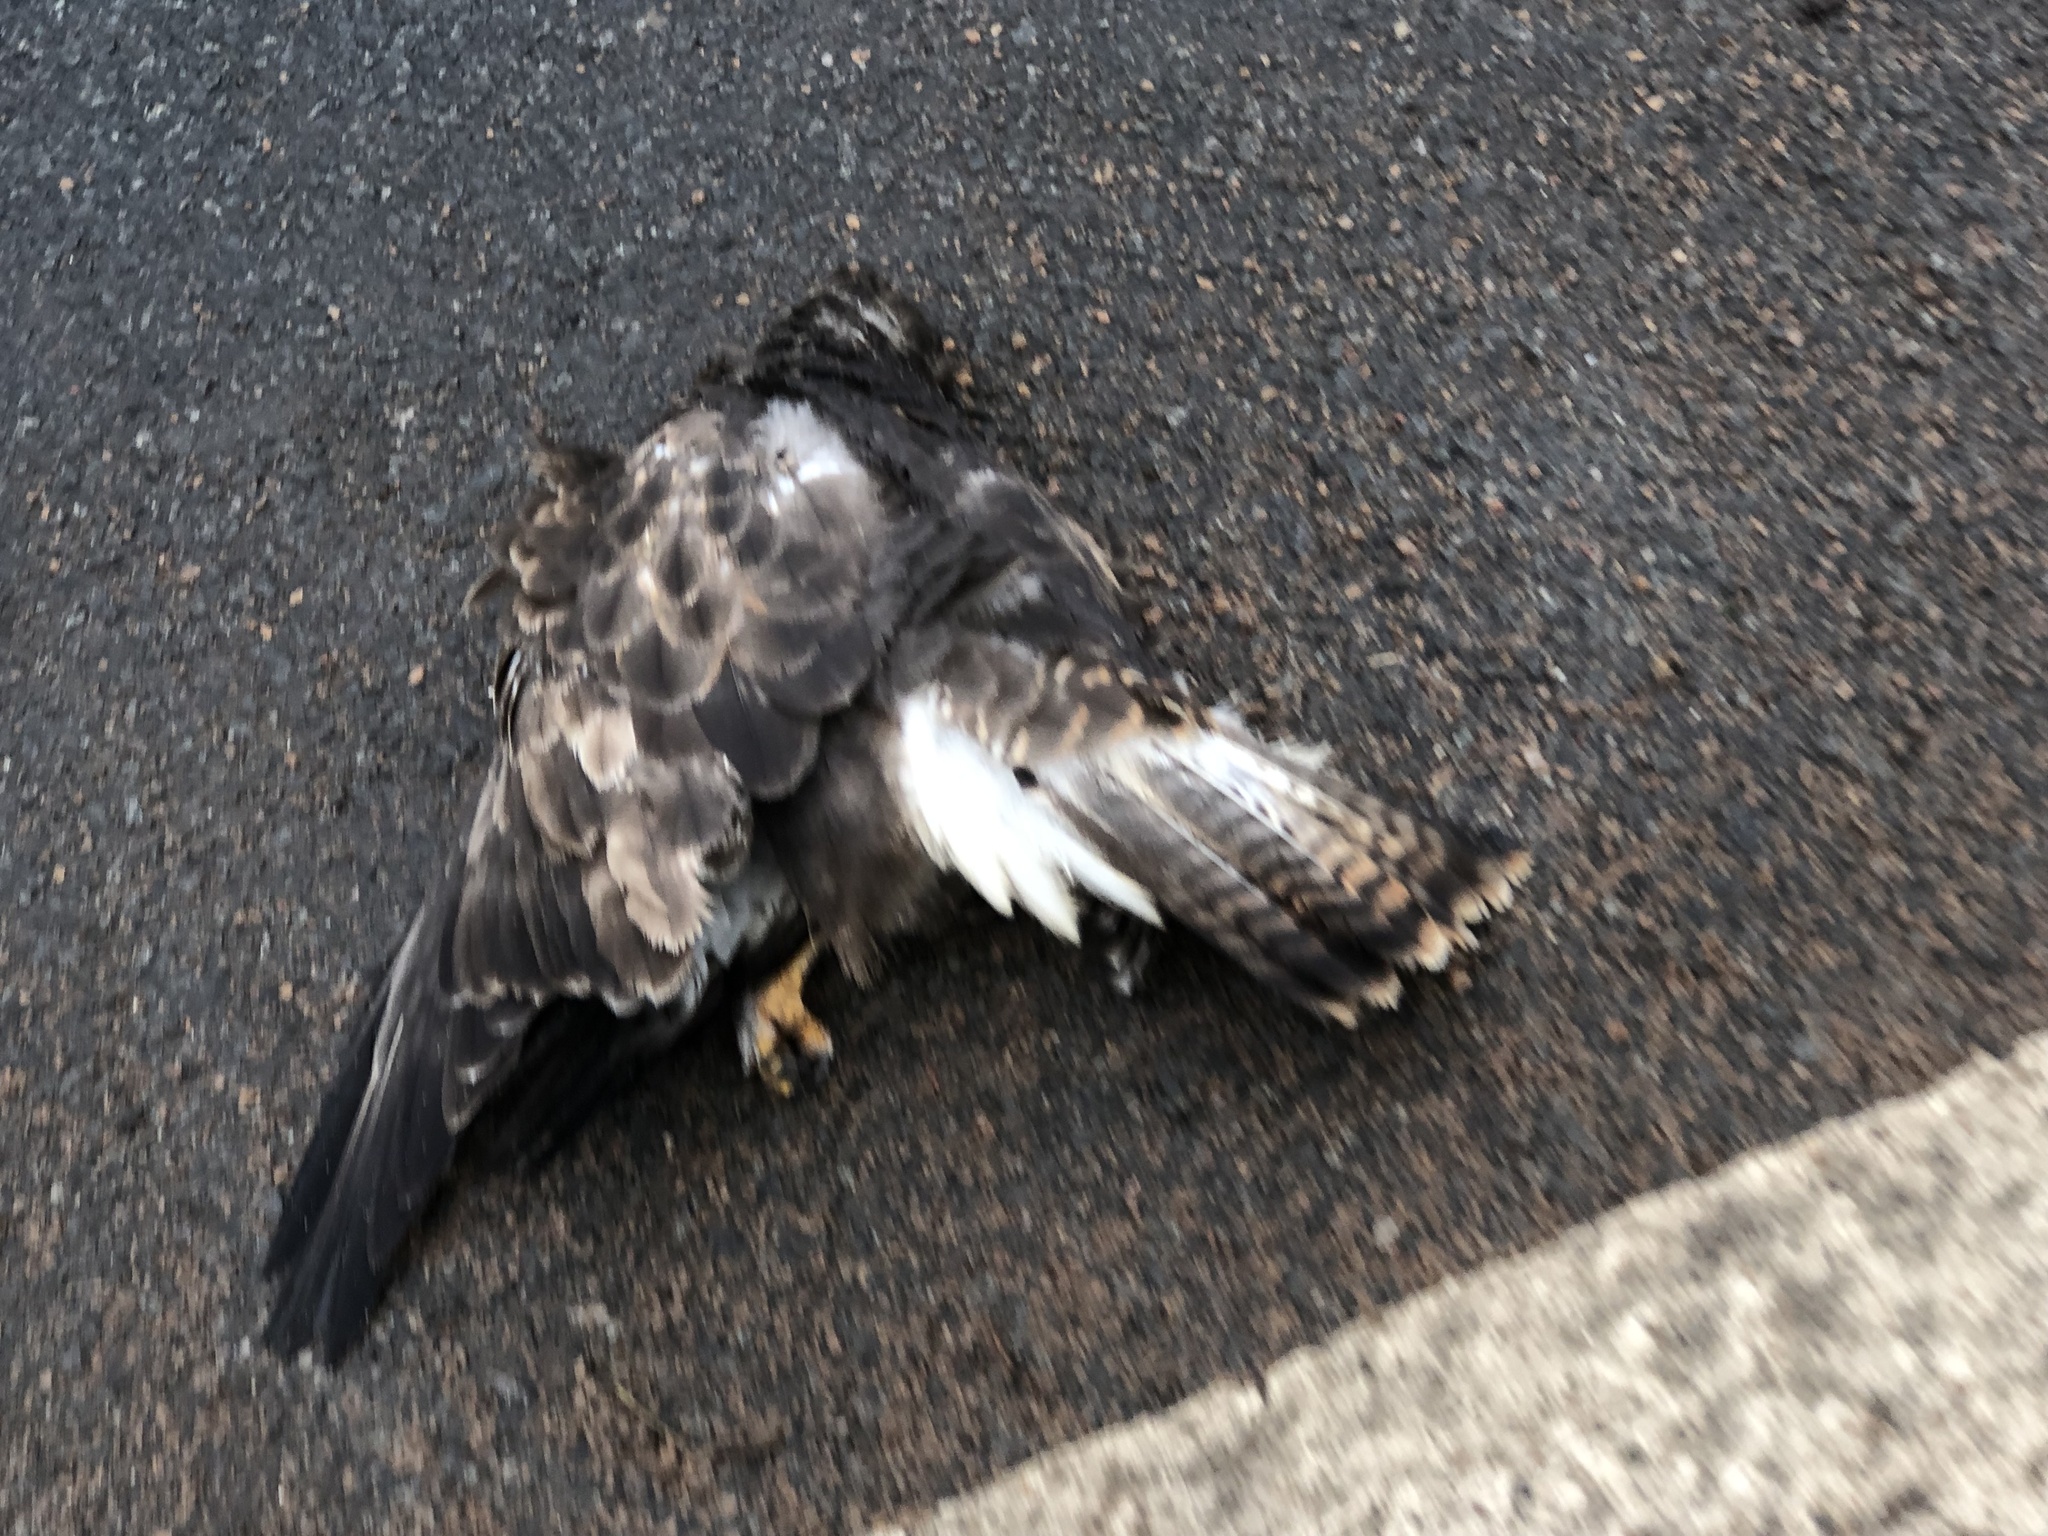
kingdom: Animalia
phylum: Chordata
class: Aves
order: Accipitriformes
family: Accipitridae
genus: Buteo
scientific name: Buteo buteo
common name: Common buzzard
